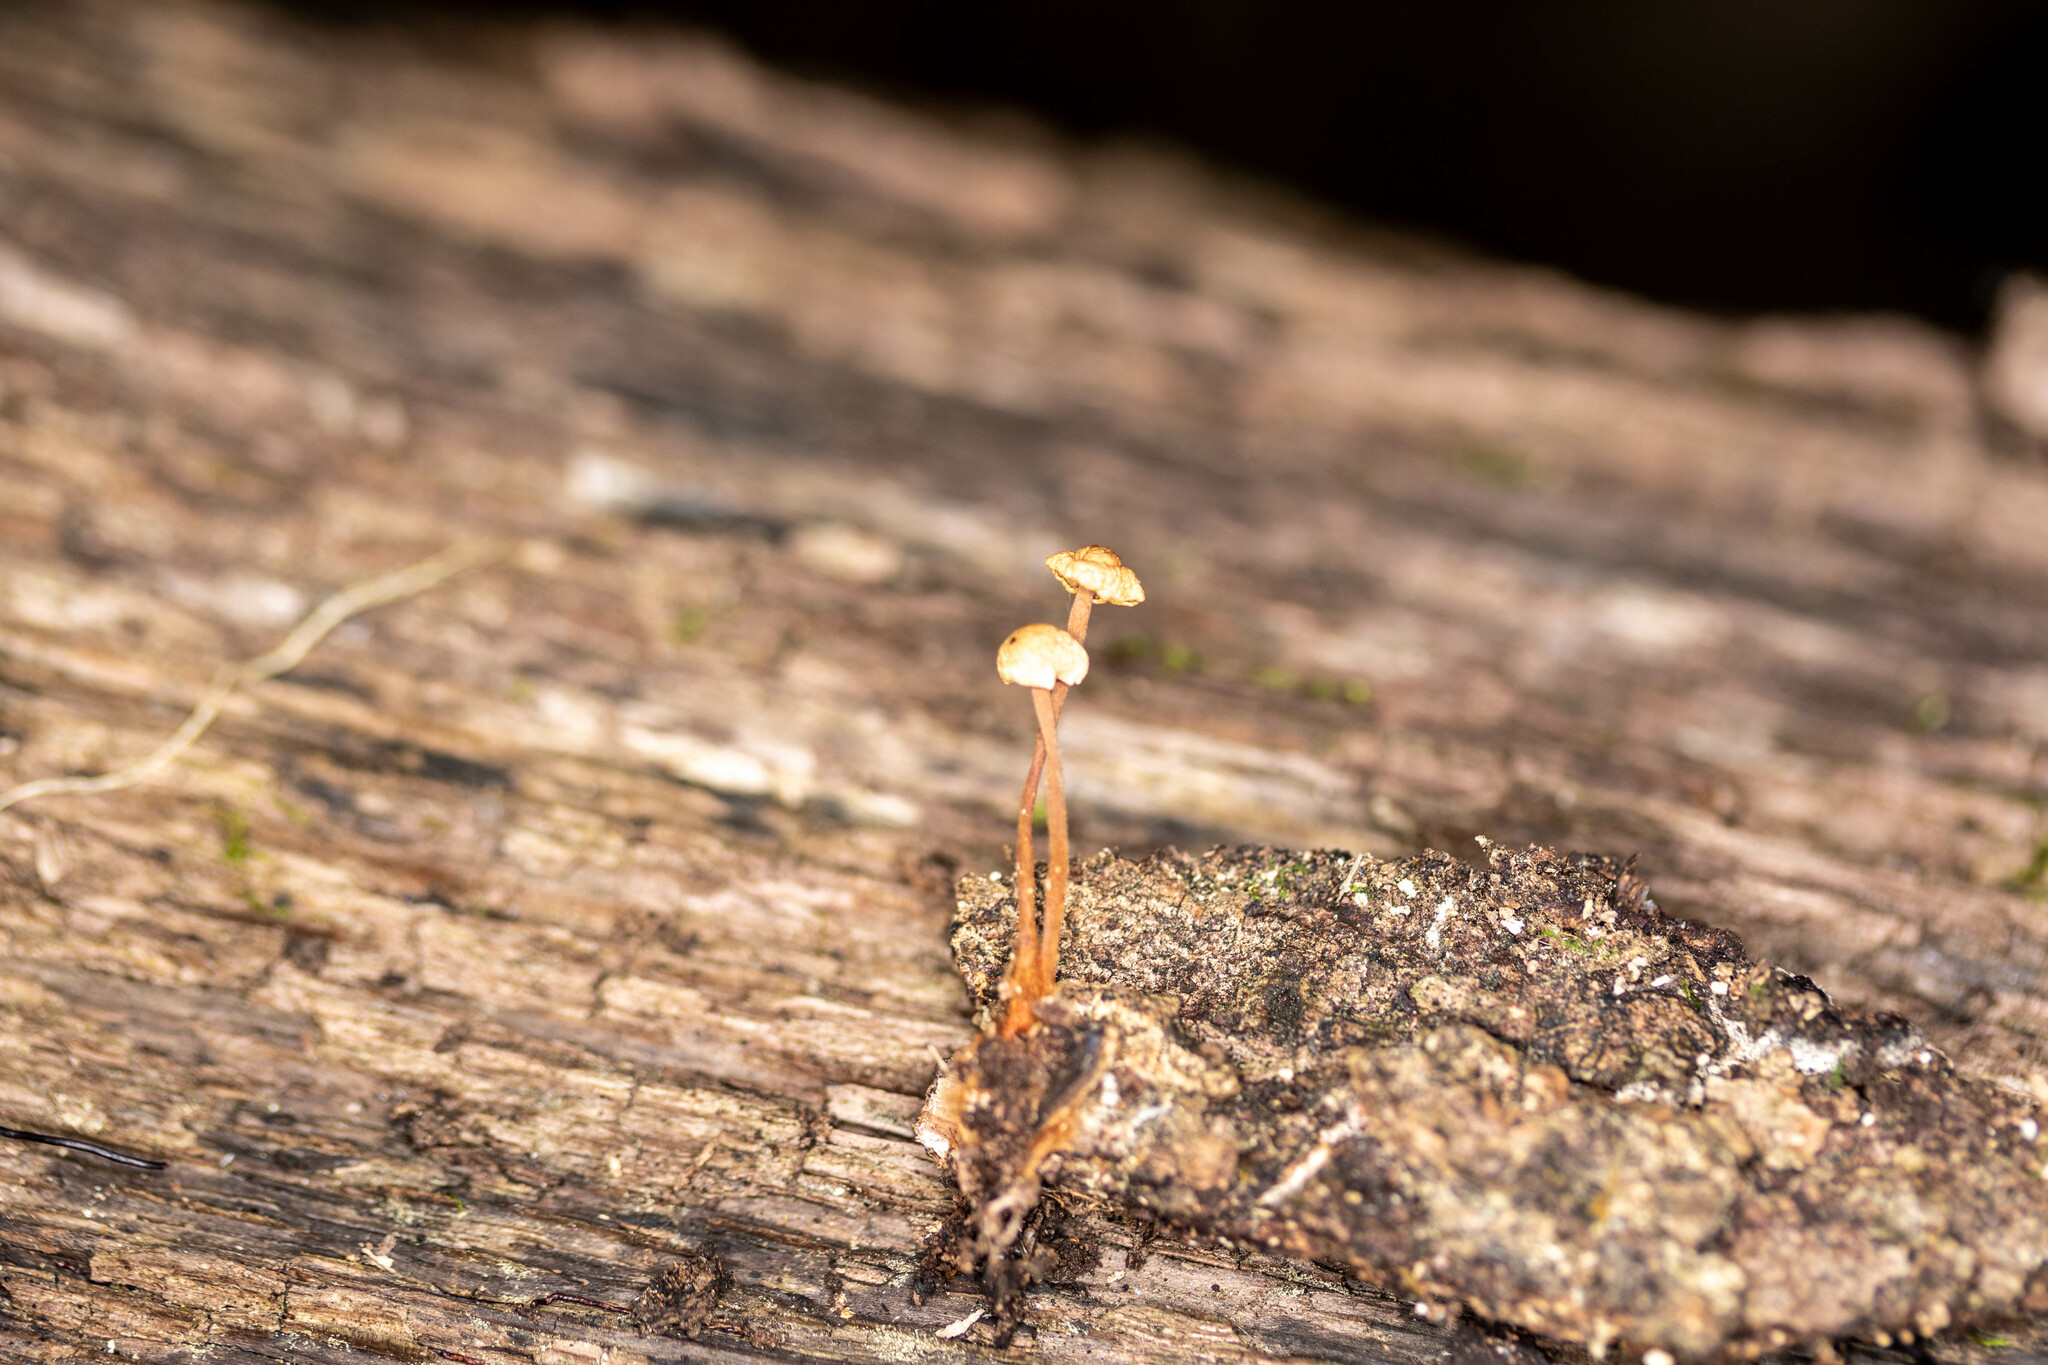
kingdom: Fungi
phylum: Basidiomycota
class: Agaricomycetes
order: Agaricales
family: Omphalotaceae
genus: Gymnopus
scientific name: Gymnopus spongiosus
